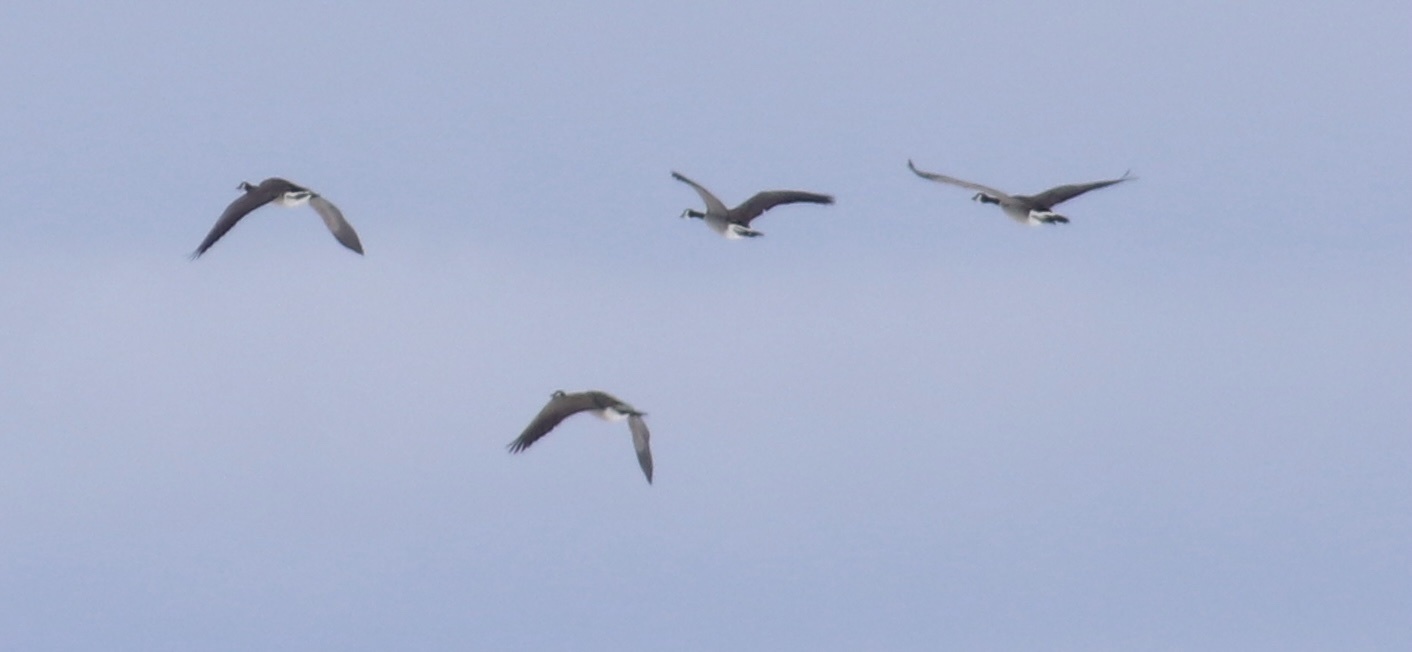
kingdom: Animalia
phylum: Chordata
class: Aves
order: Anseriformes
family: Anatidae
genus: Branta
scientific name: Branta canadensis
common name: Canada goose
